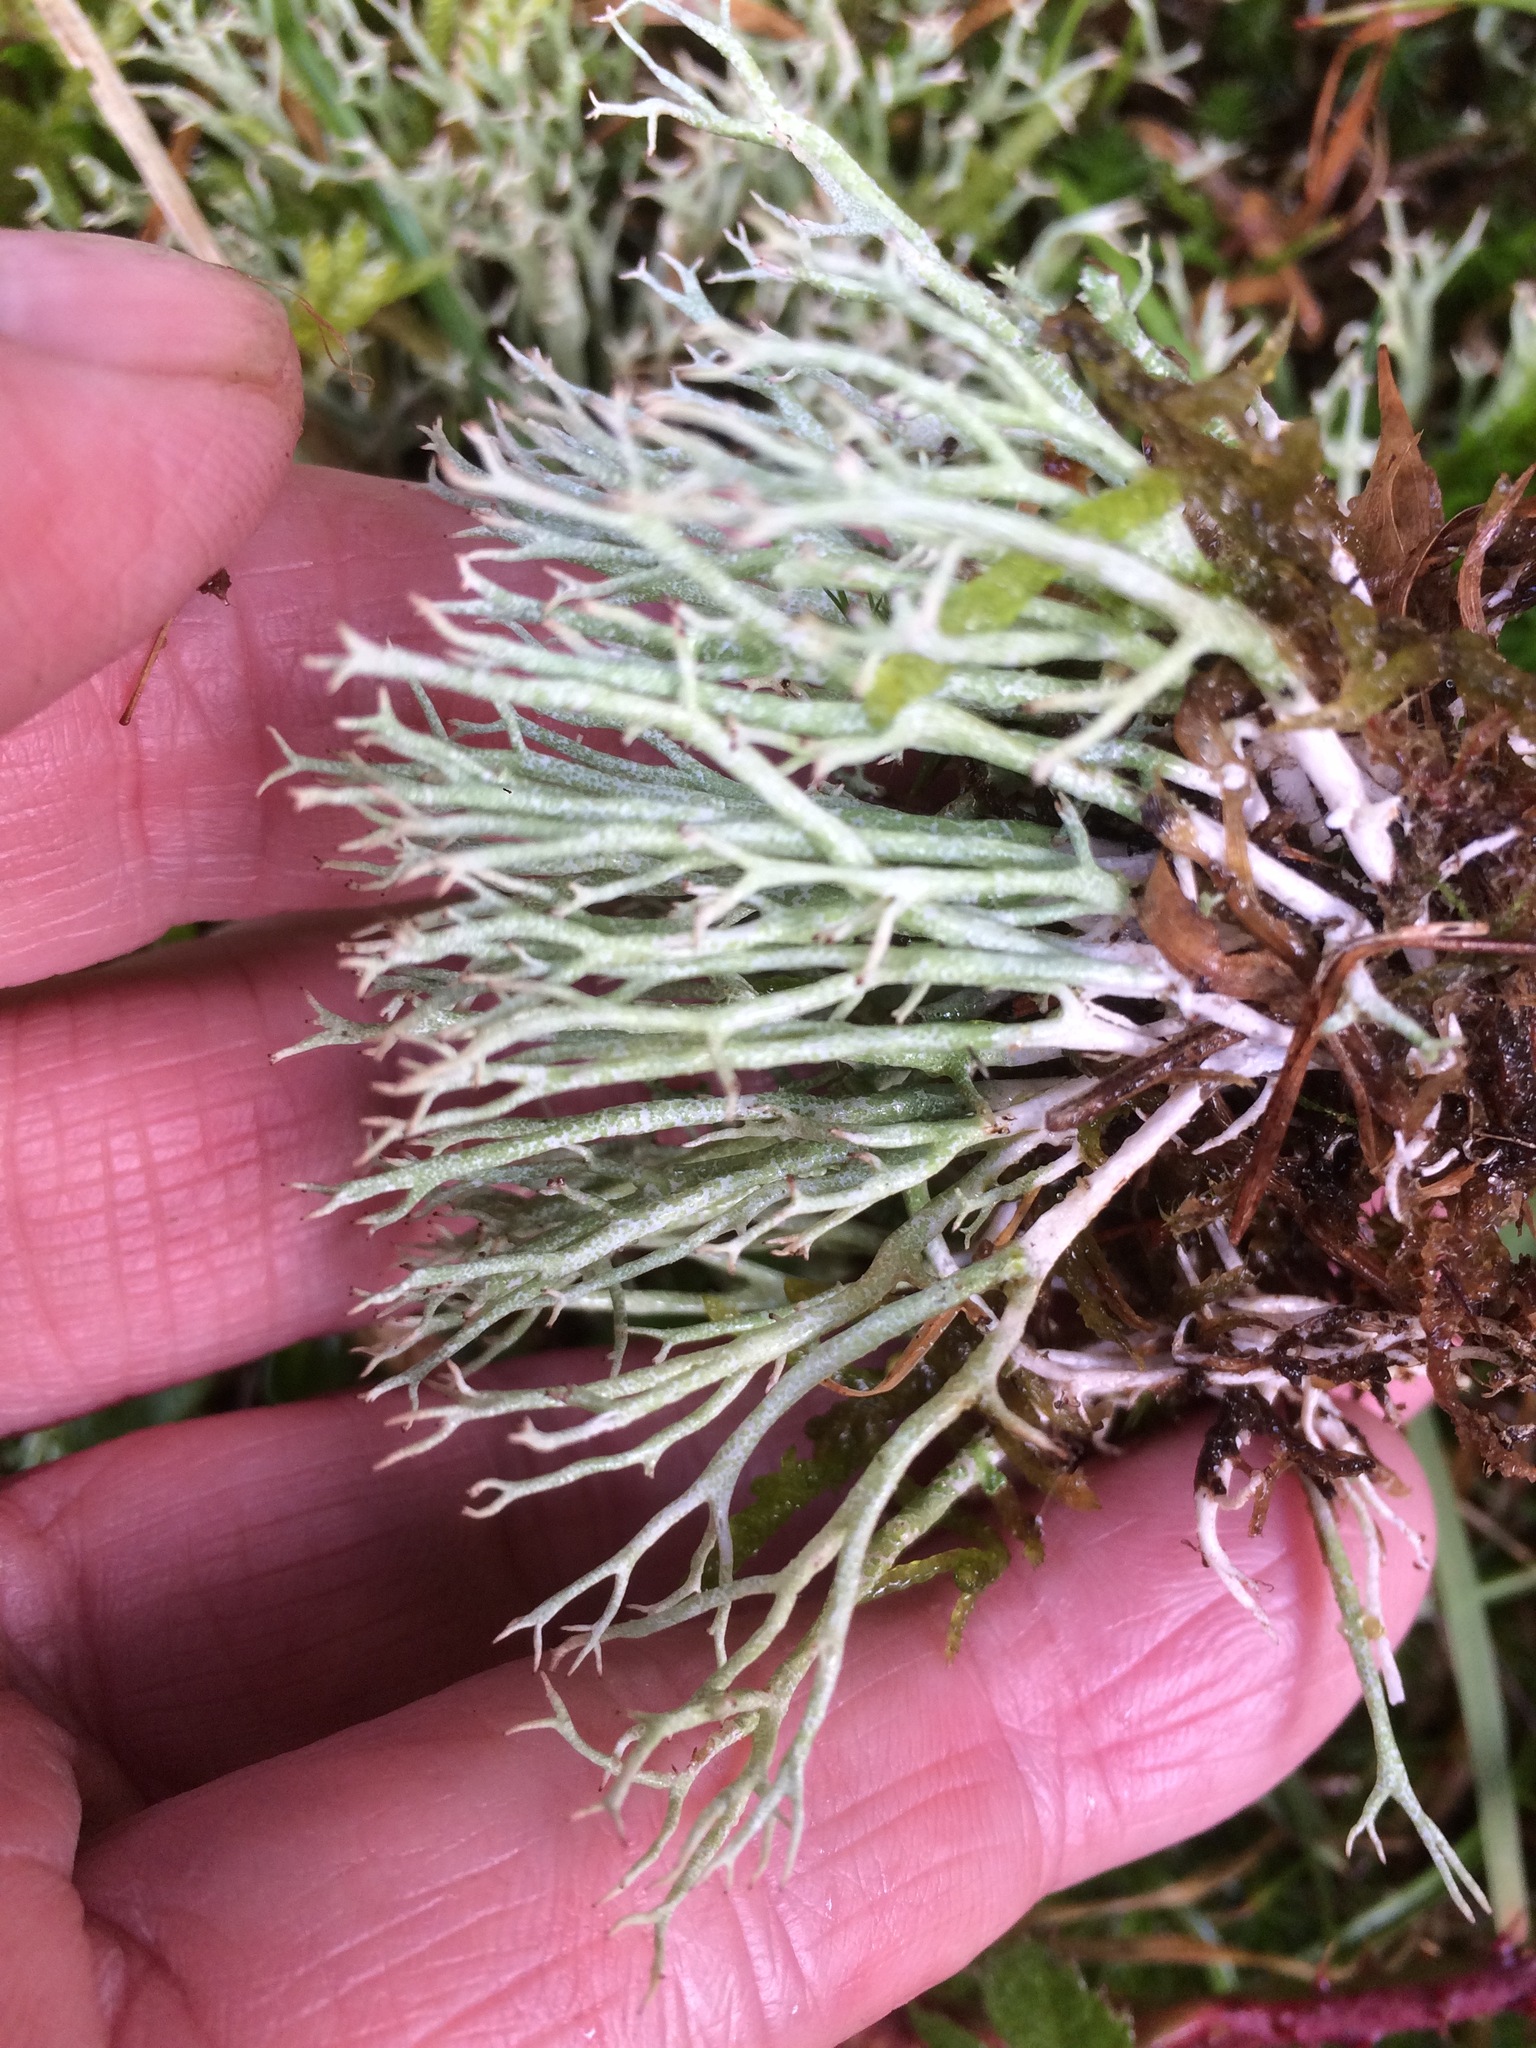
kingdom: Fungi
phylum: Ascomycota
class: Lecanoromycetes
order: Lecanorales
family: Cladoniaceae
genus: Cladonia
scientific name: Cladonia furcata
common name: Many-forked cladonia
